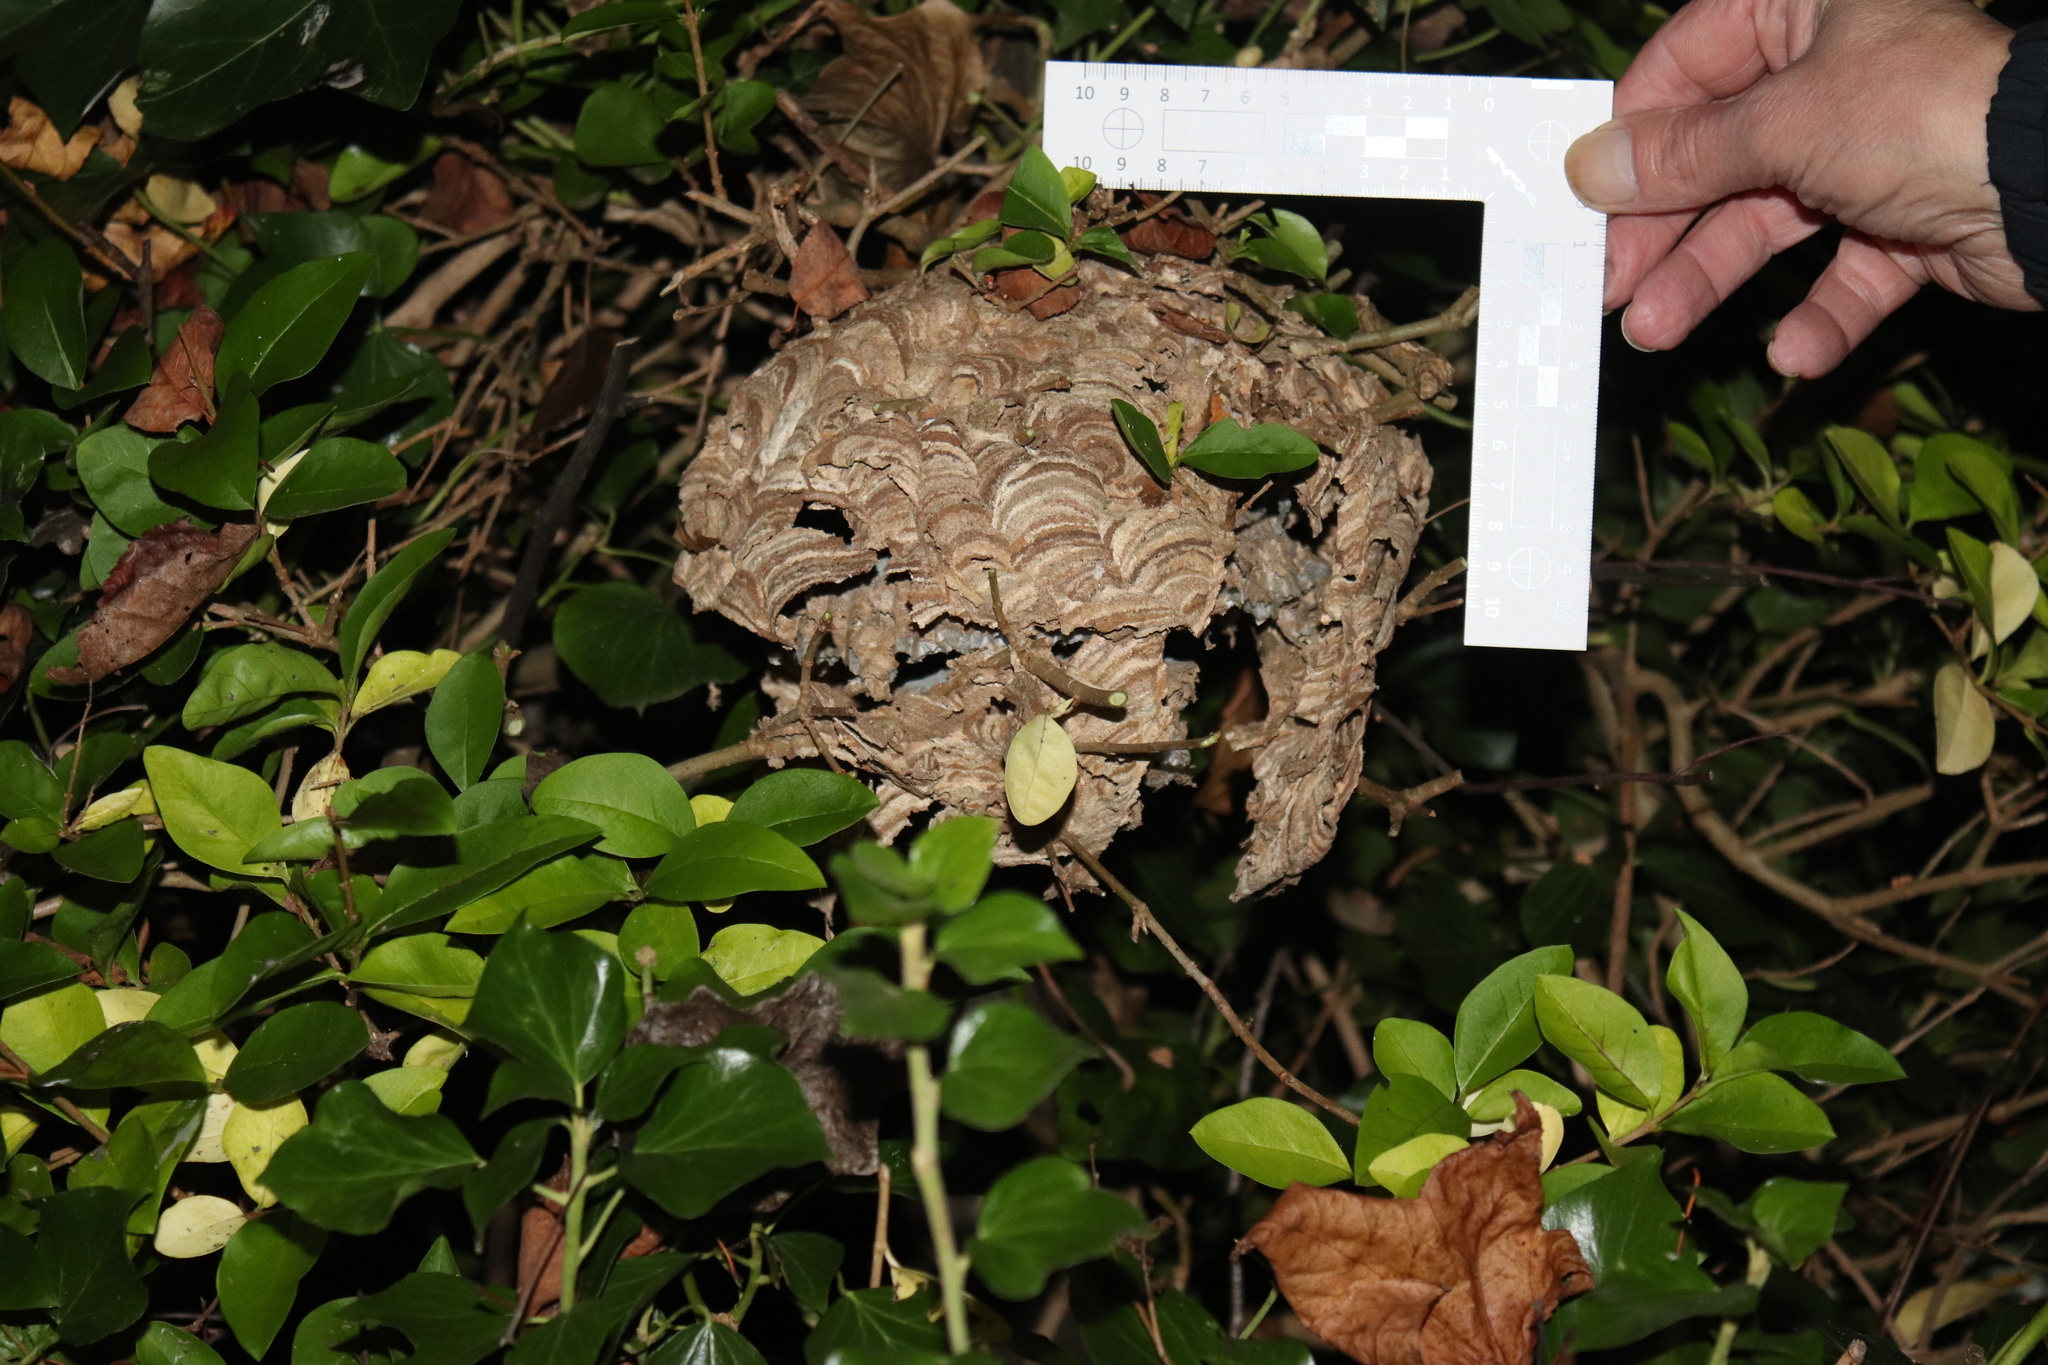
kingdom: Animalia
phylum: Arthropoda
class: Insecta
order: Hymenoptera
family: Vespidae
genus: Vespa
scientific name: Vespa velutina
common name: Asian hornet
